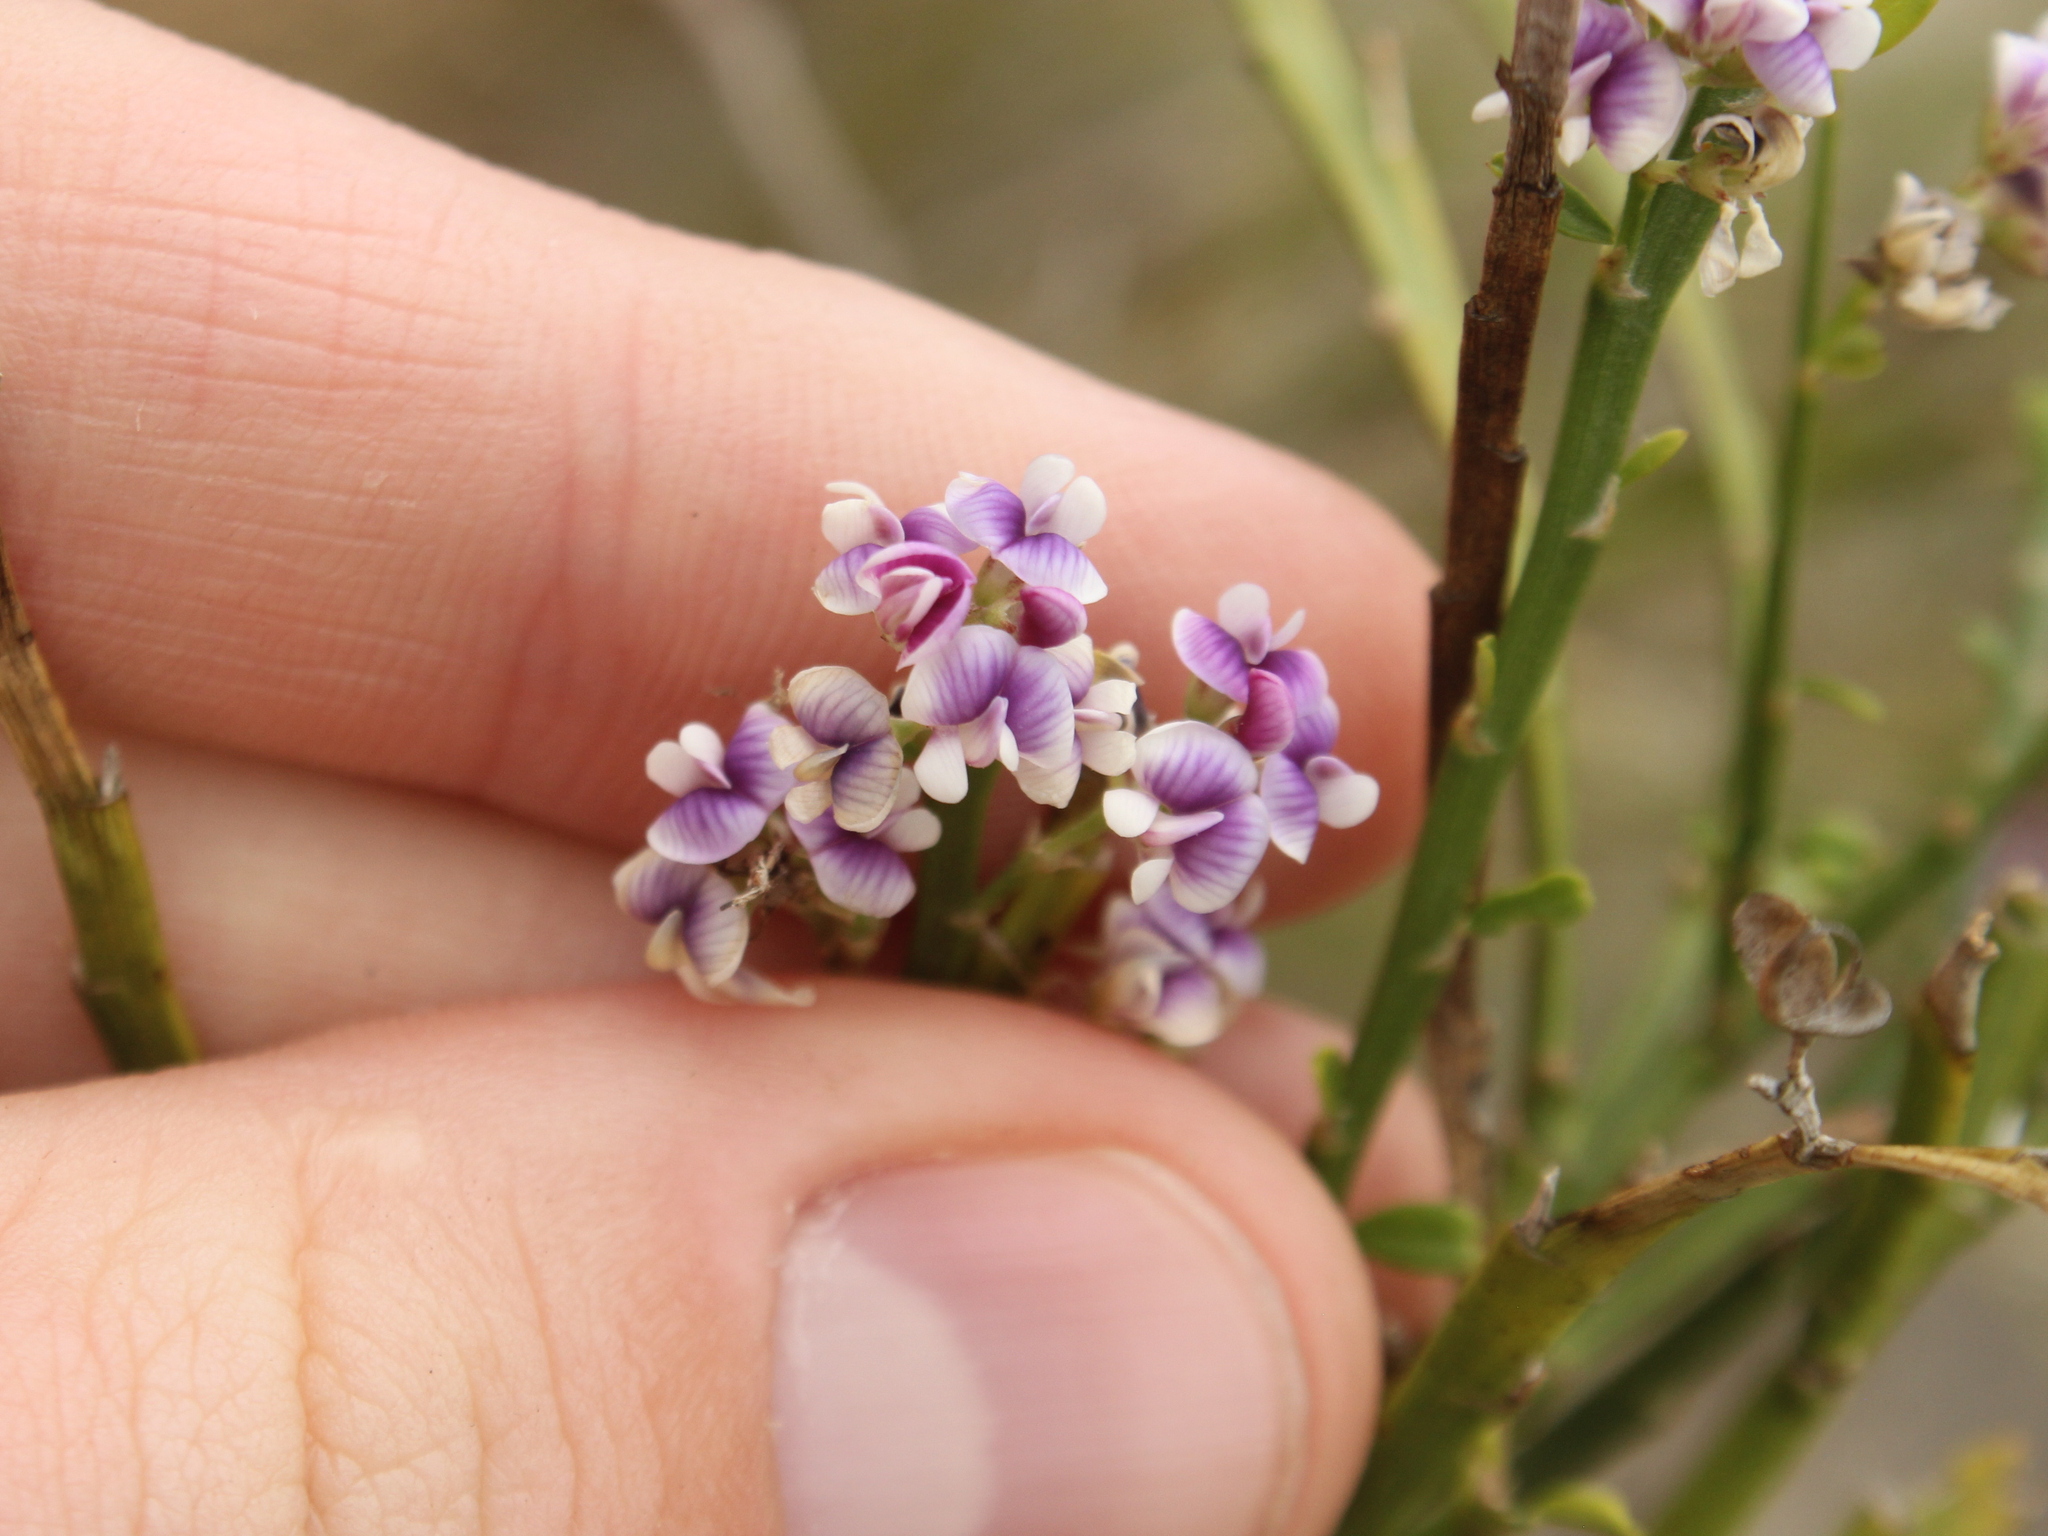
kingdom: Plantae
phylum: Tracheophyta
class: Magnoliopsida
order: Fabales
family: Fabaceae
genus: Carmichaelia
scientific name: Carmichaelia odorata
